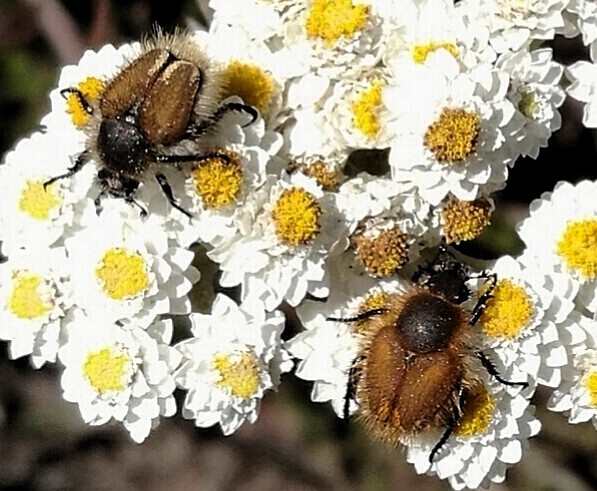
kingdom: Animalia
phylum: Arthropoda
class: Insecta
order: Coleoptera
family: Scarabaeidae
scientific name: Scarabaeidae
